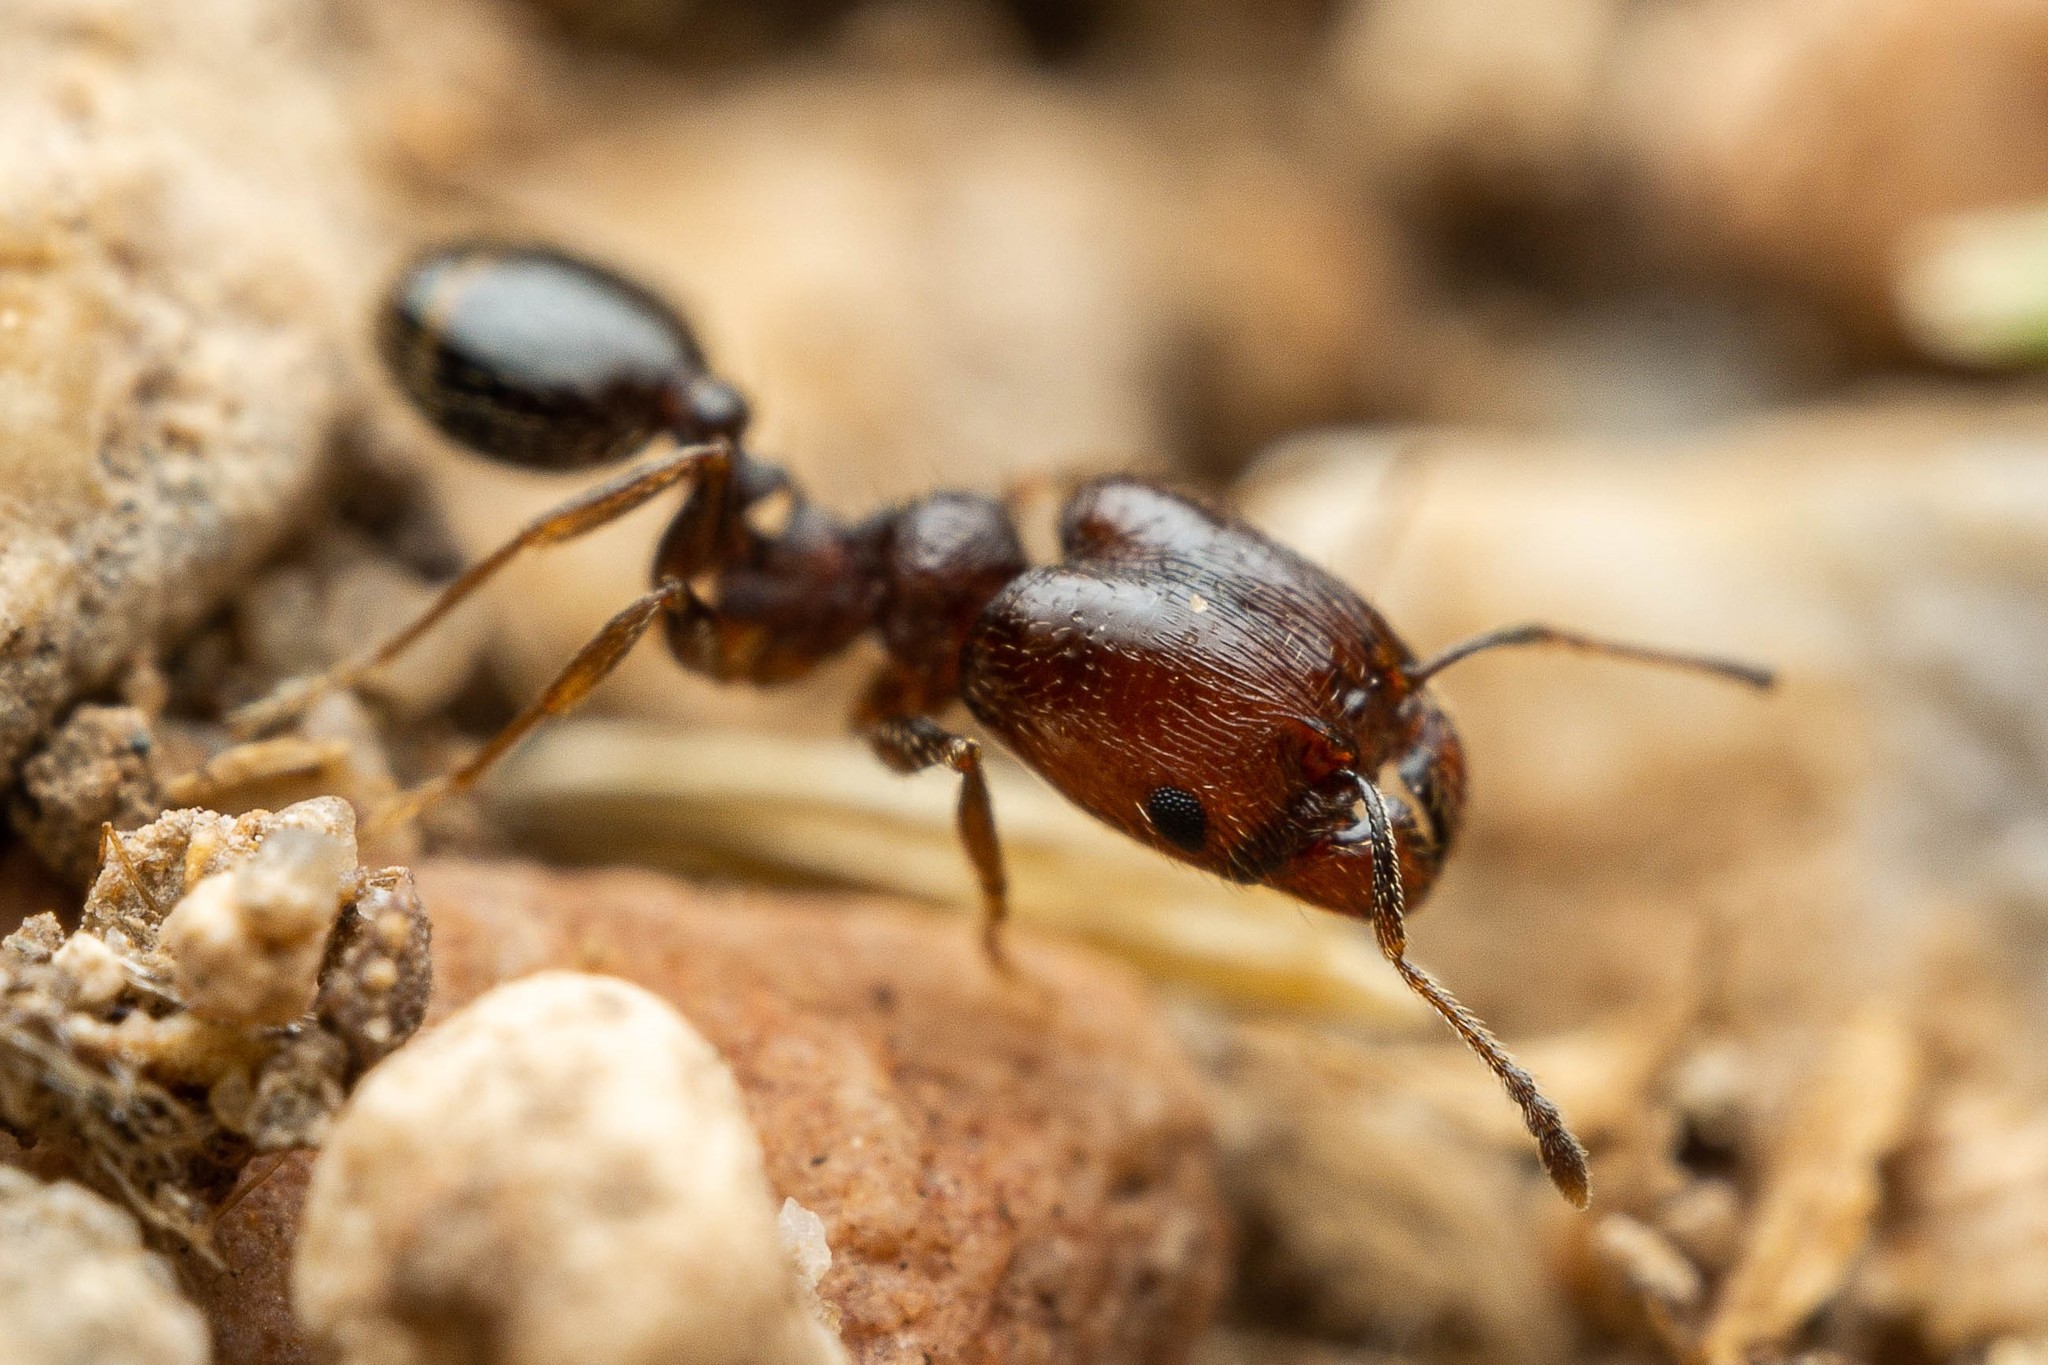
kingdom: Animalia
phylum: Arthropoda
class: Insecta
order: Hymenoptera
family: Formicidae
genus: Pheidole
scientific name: Pheidole rugulosa
